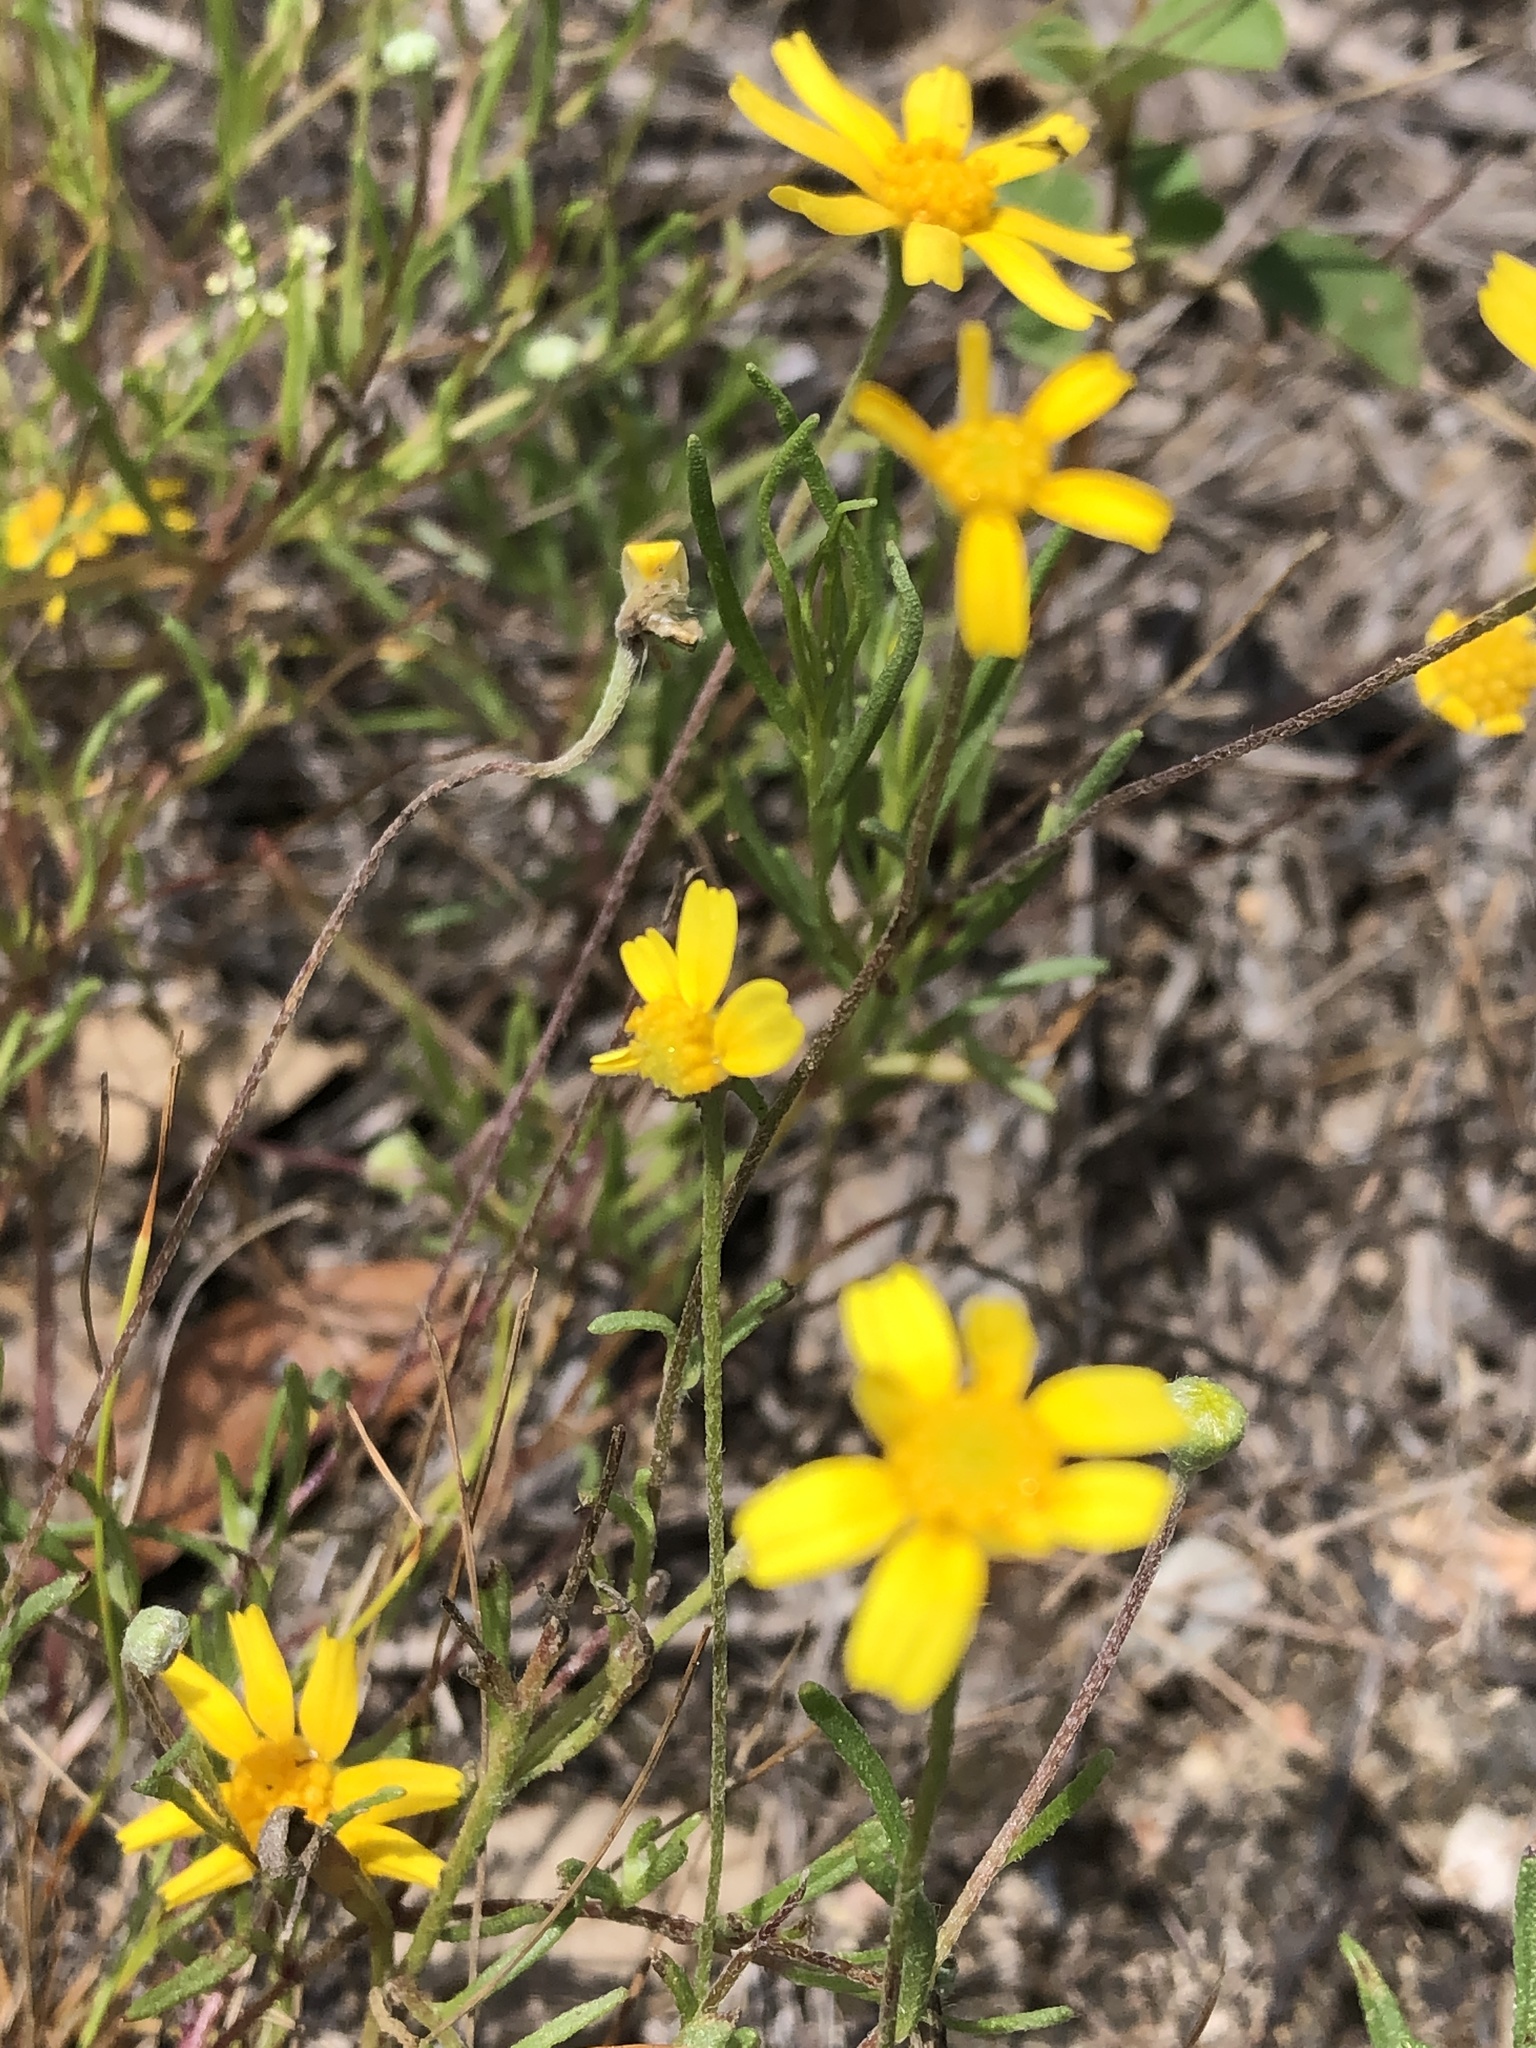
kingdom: Plantae
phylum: Tracheophyta
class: Magnoliopsida
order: Asterales
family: Asteraceae
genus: Tetraneuris
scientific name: Tetraneuris linearifolia
